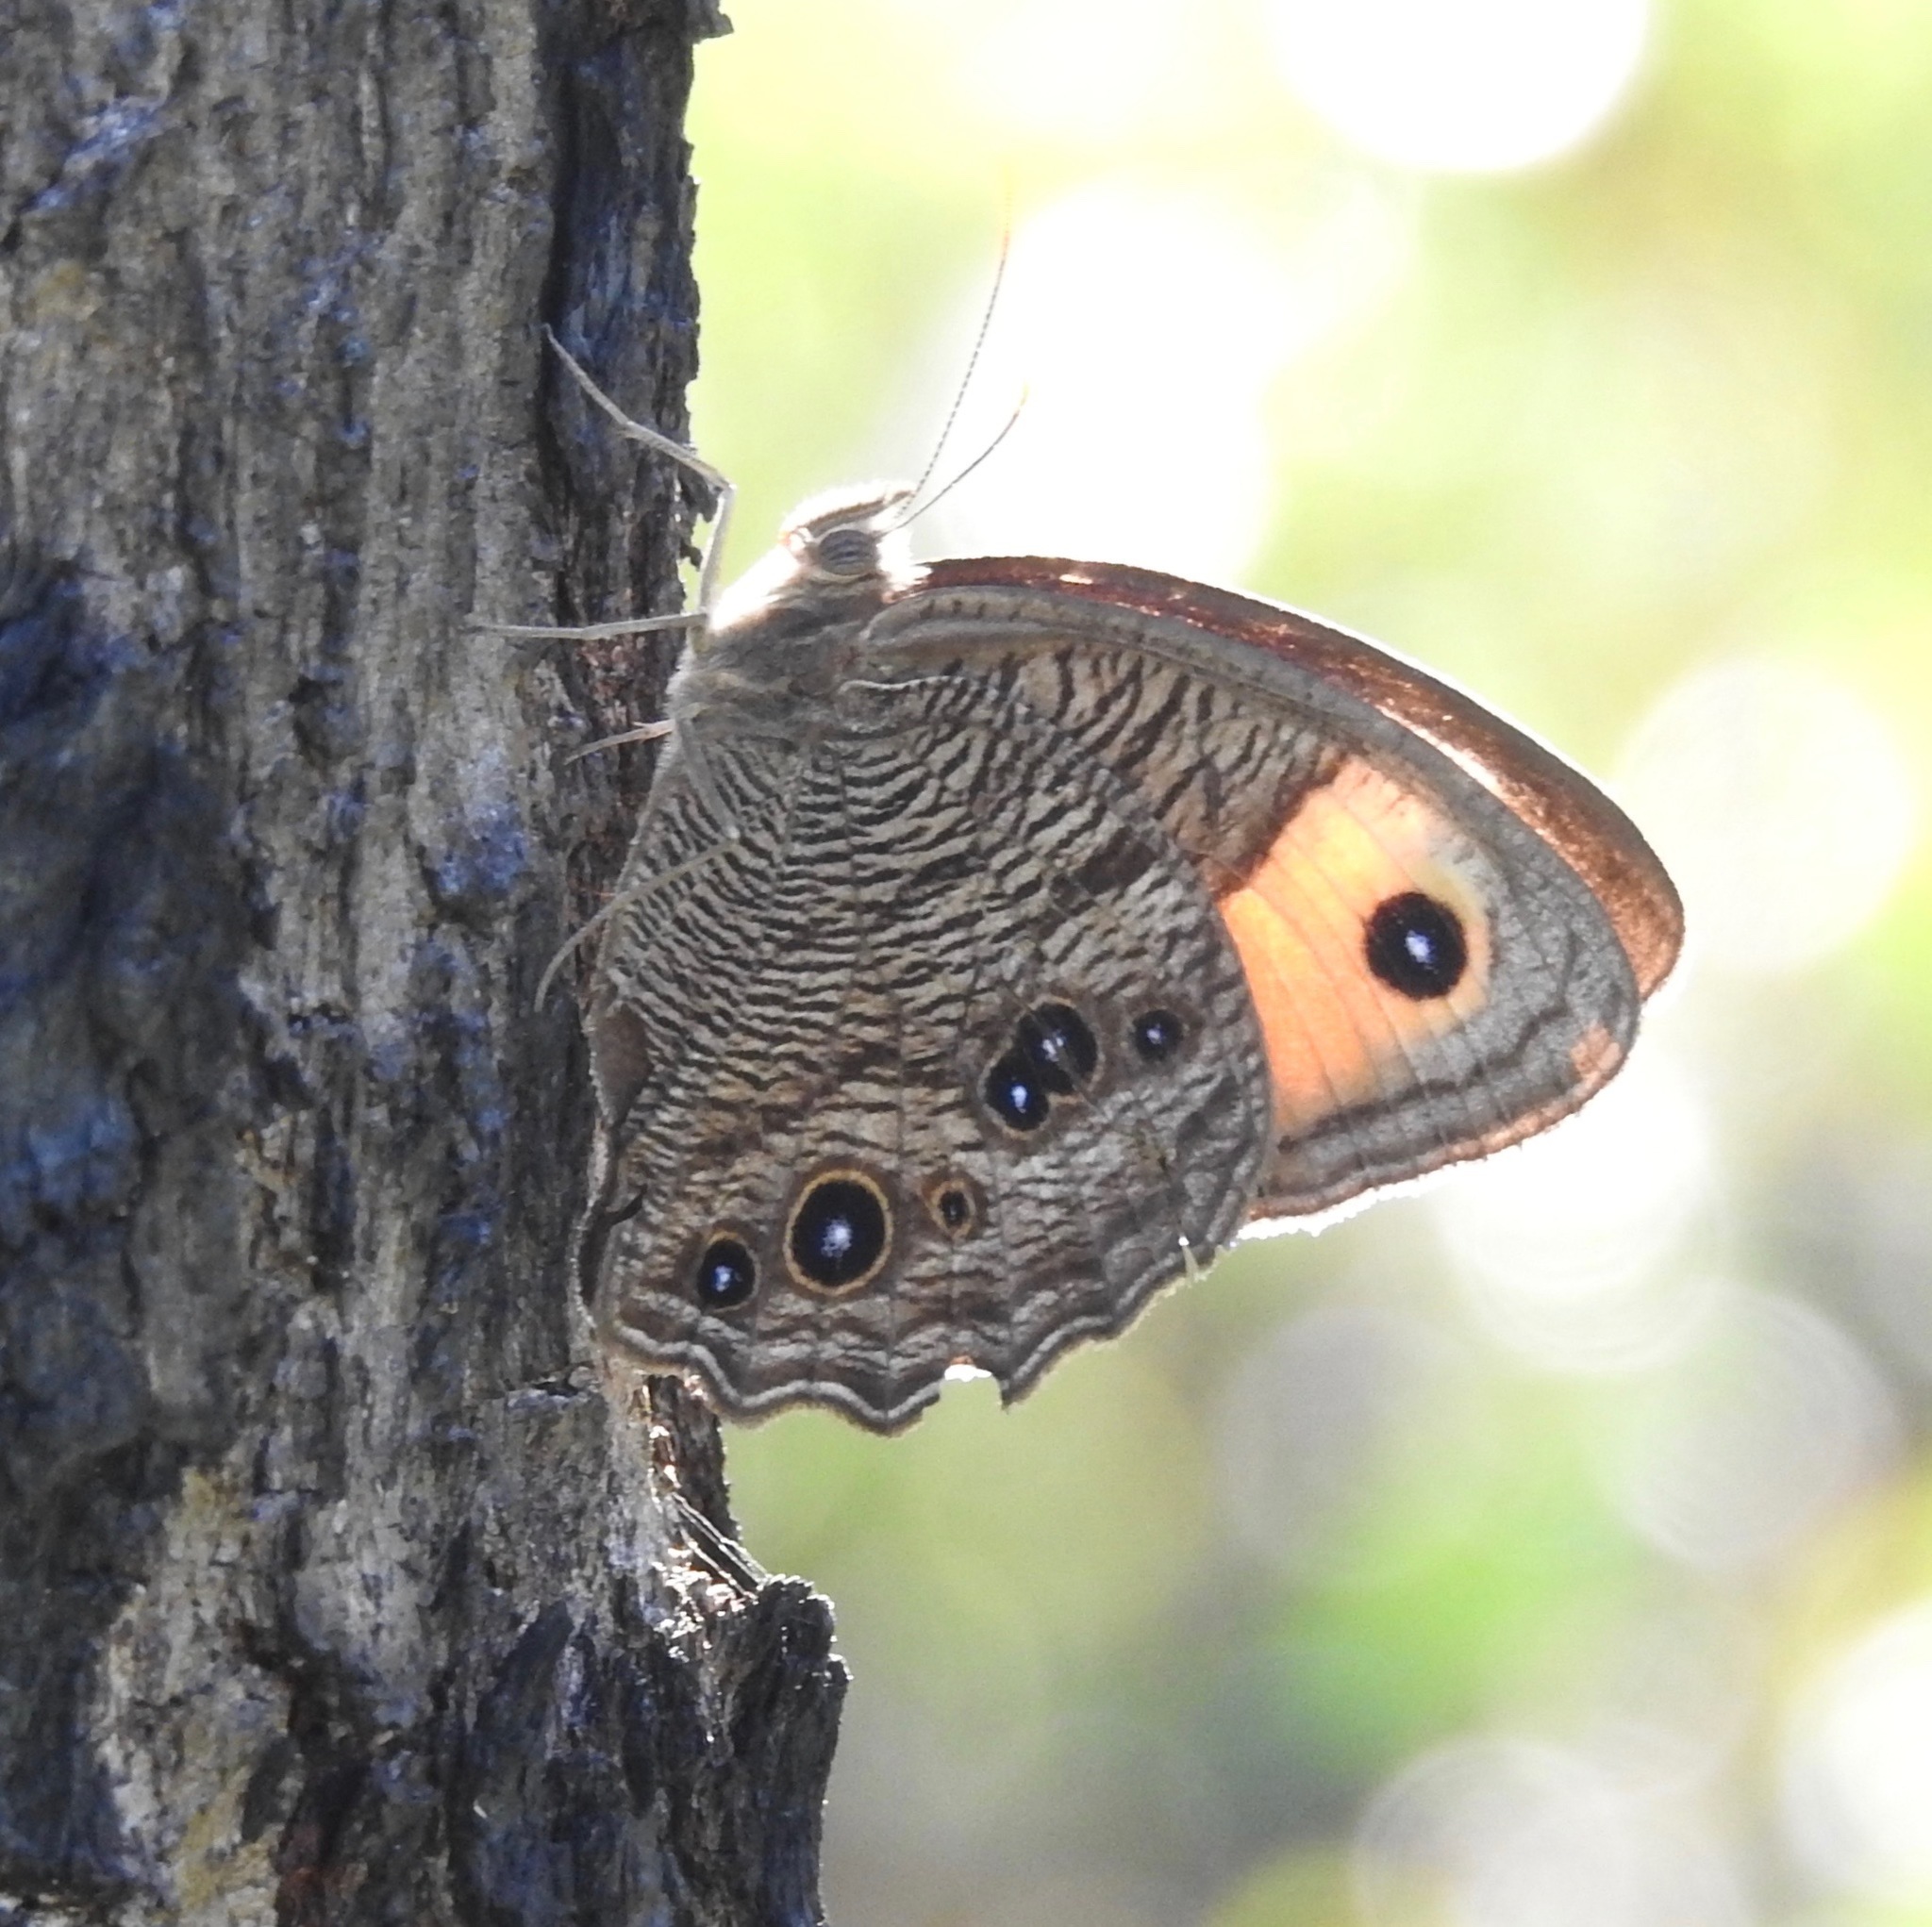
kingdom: Animalia
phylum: Arthropoda
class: Insecta
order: Lepidoptera
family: Nymphalidae
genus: Cercyonis
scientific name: Cercyonis pegala
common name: Common wood-nymph
